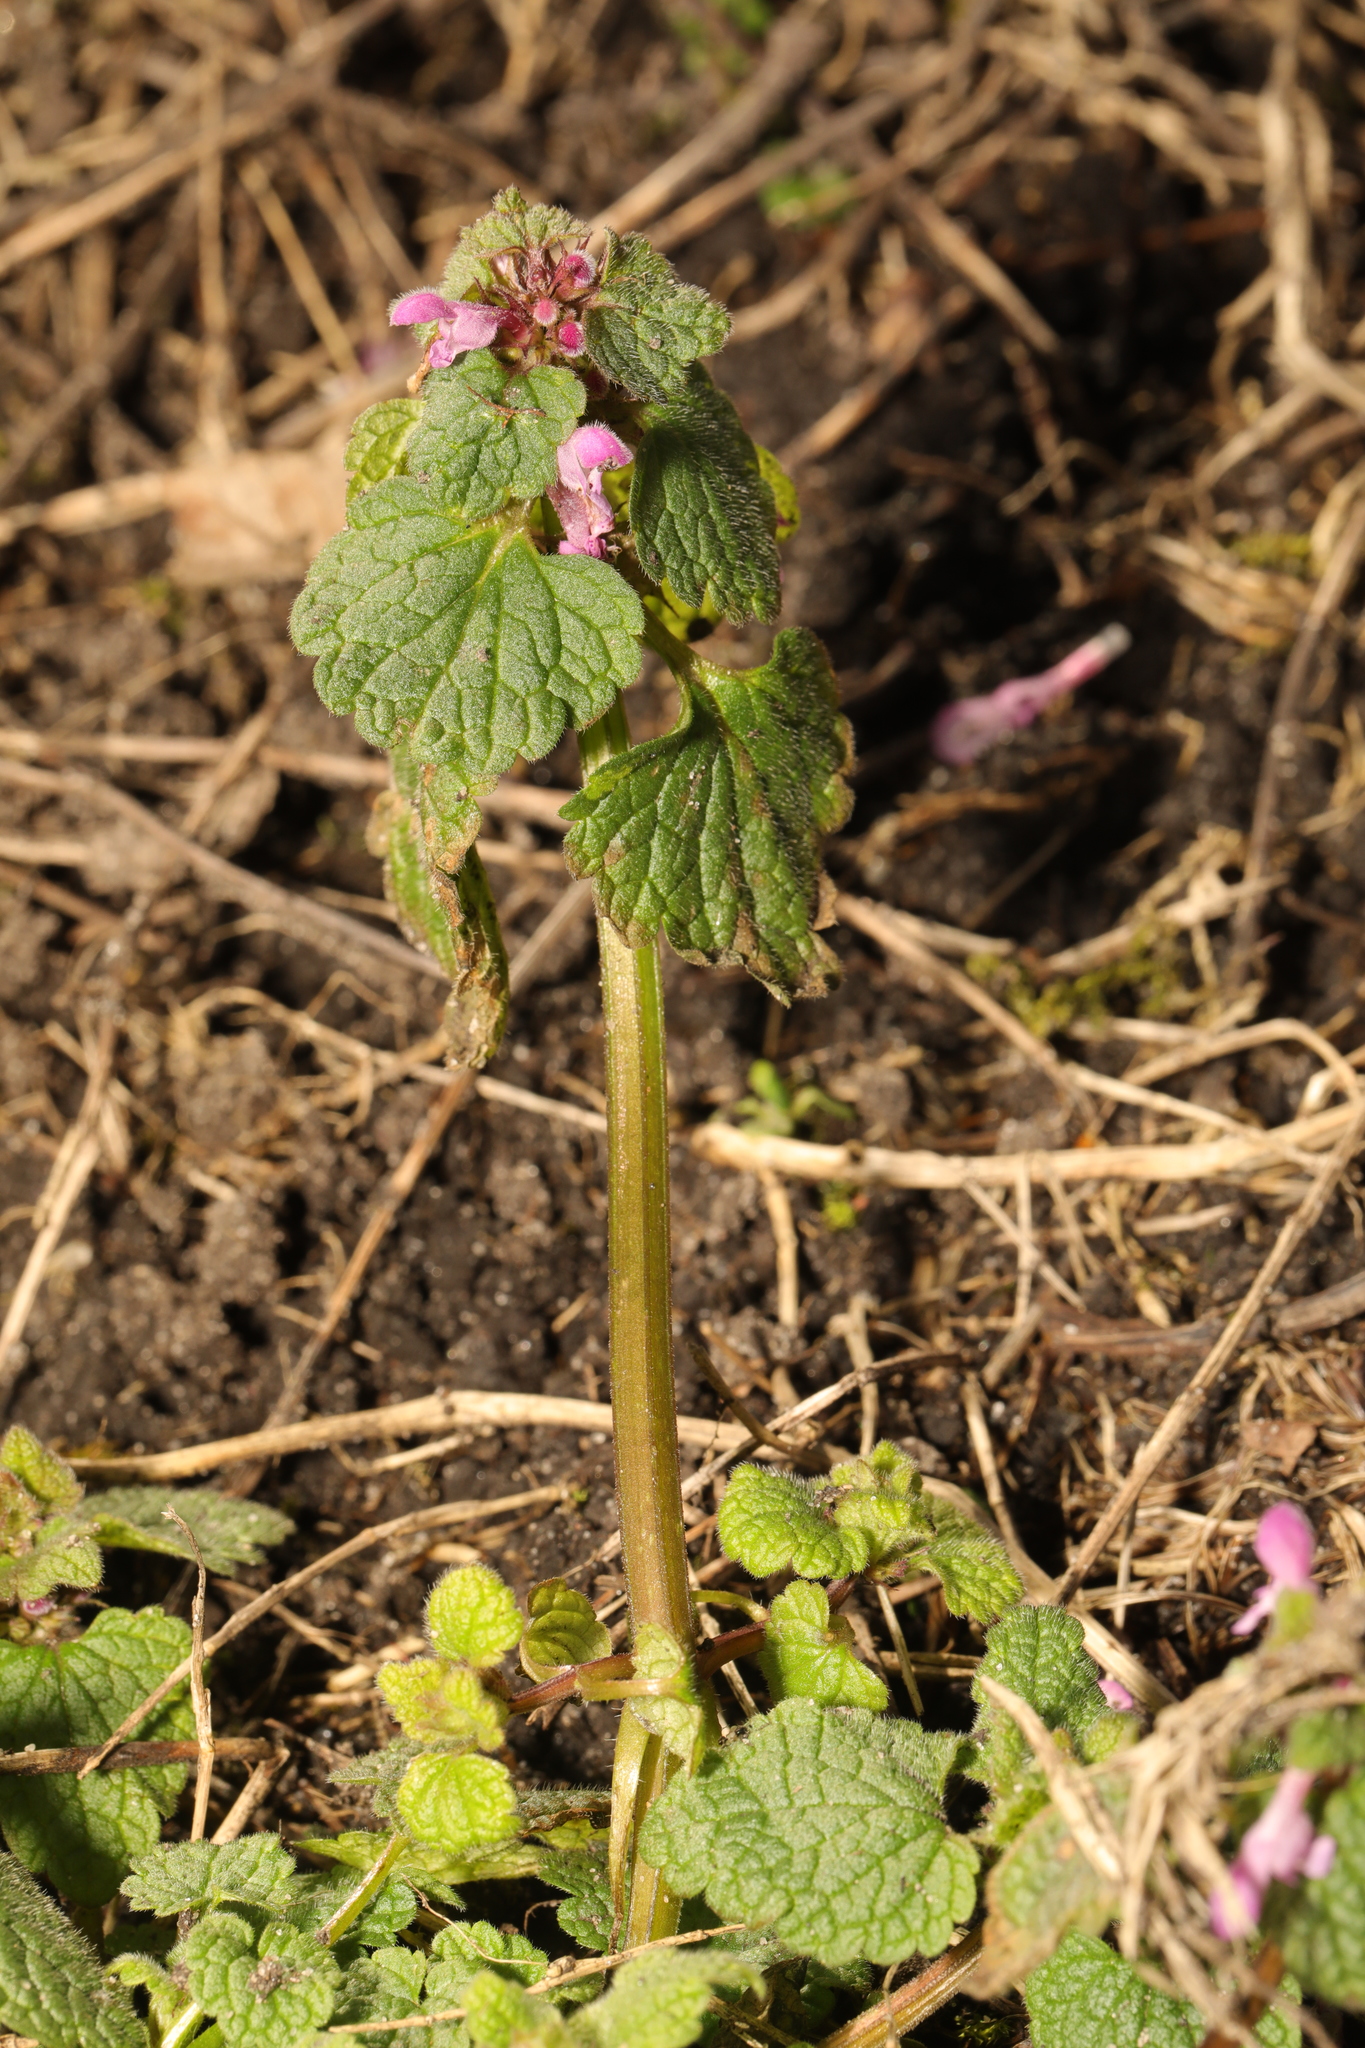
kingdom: Plantae
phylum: Tracheophyta
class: Magnoliopsida
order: Lamiales
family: Lamiaceae
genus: Lamium
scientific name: Lamium purpureum
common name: Red dead-nettle
